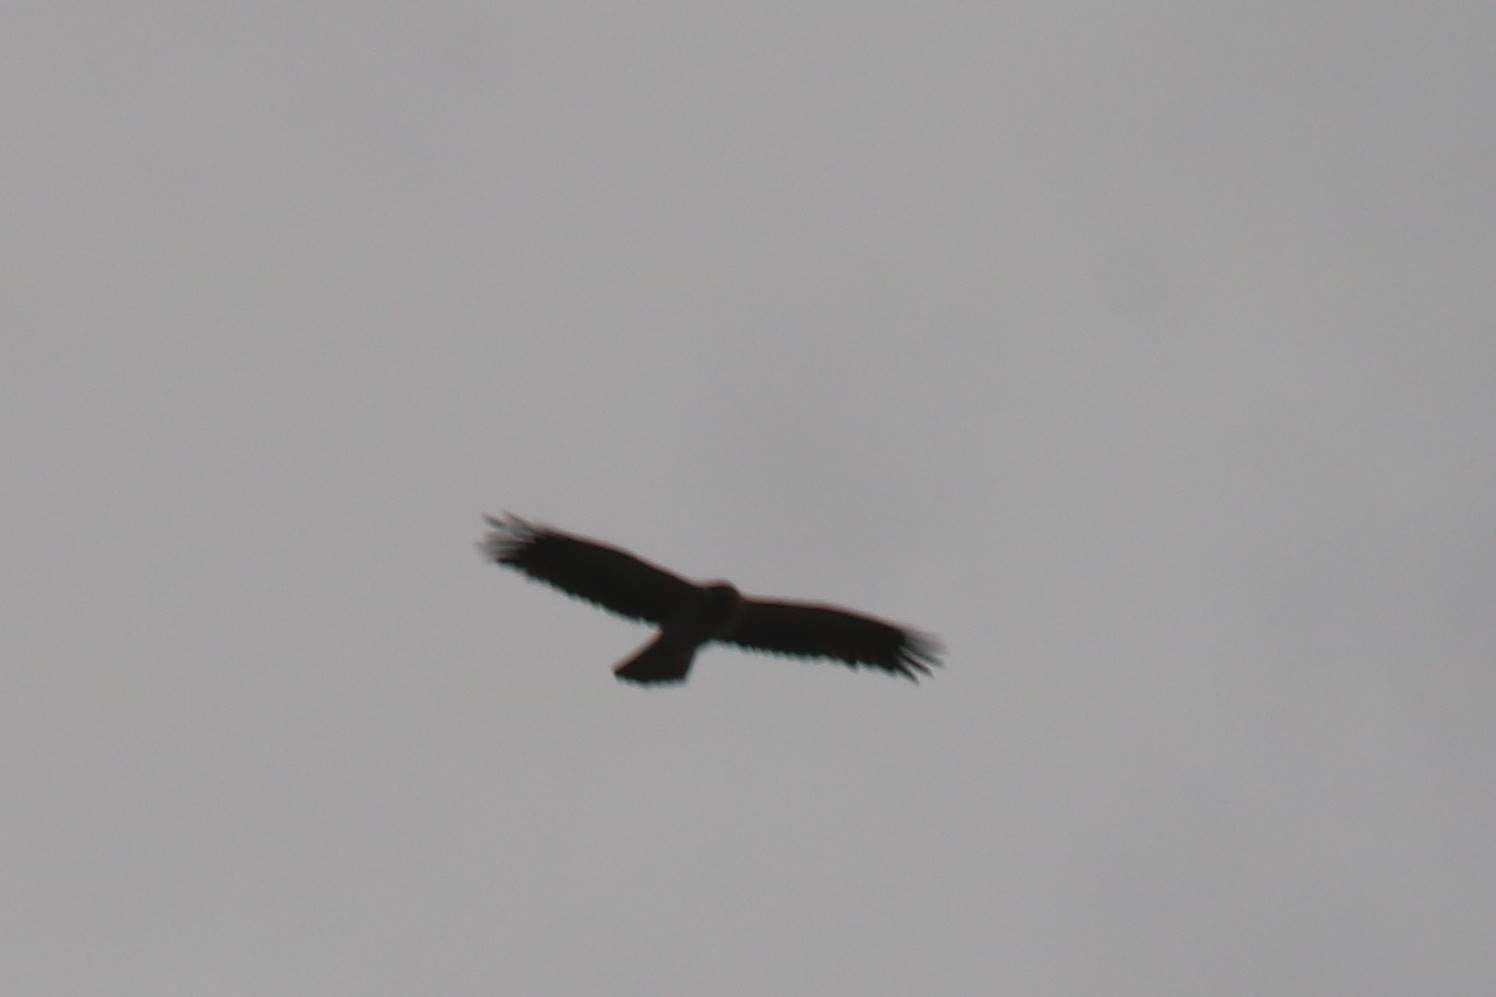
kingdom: Animalia
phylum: Chordata
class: Aves
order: Accipitriformes
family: Accipitridae
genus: Hieraaetus
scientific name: Hieraaetus pennatus
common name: Booted eagle
